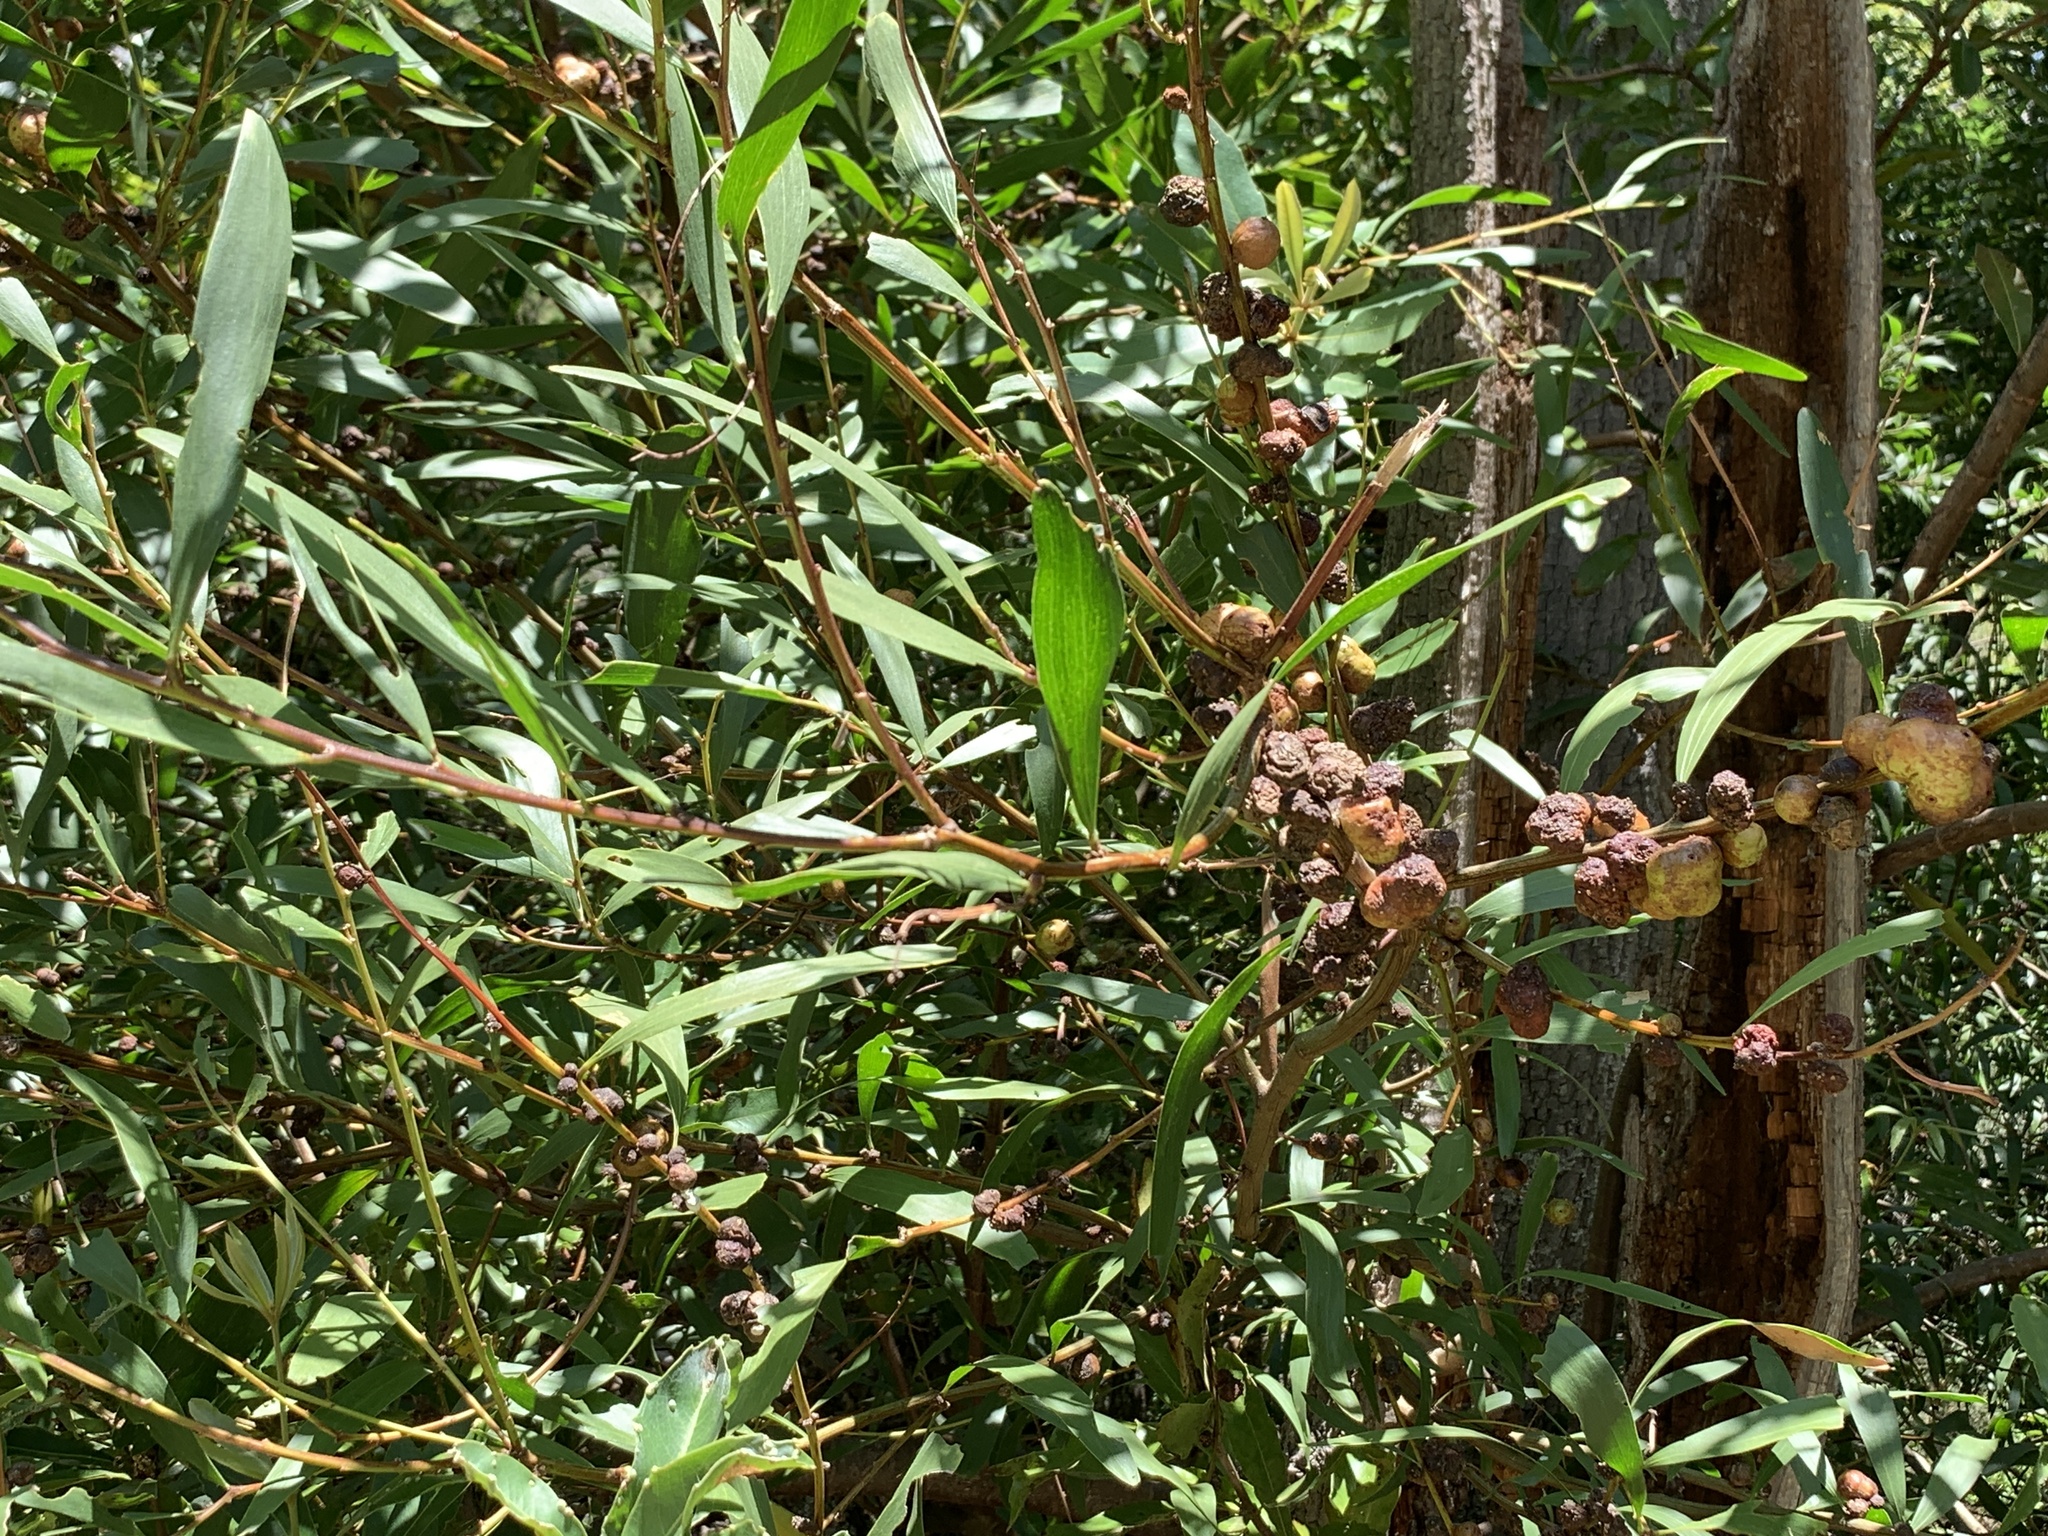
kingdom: Plantae
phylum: Tracheophyta
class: Magnoliopsida
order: Fabales
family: Fabaceae
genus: Acacia
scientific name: Acacia longifolia
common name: Sydney golden wattle
